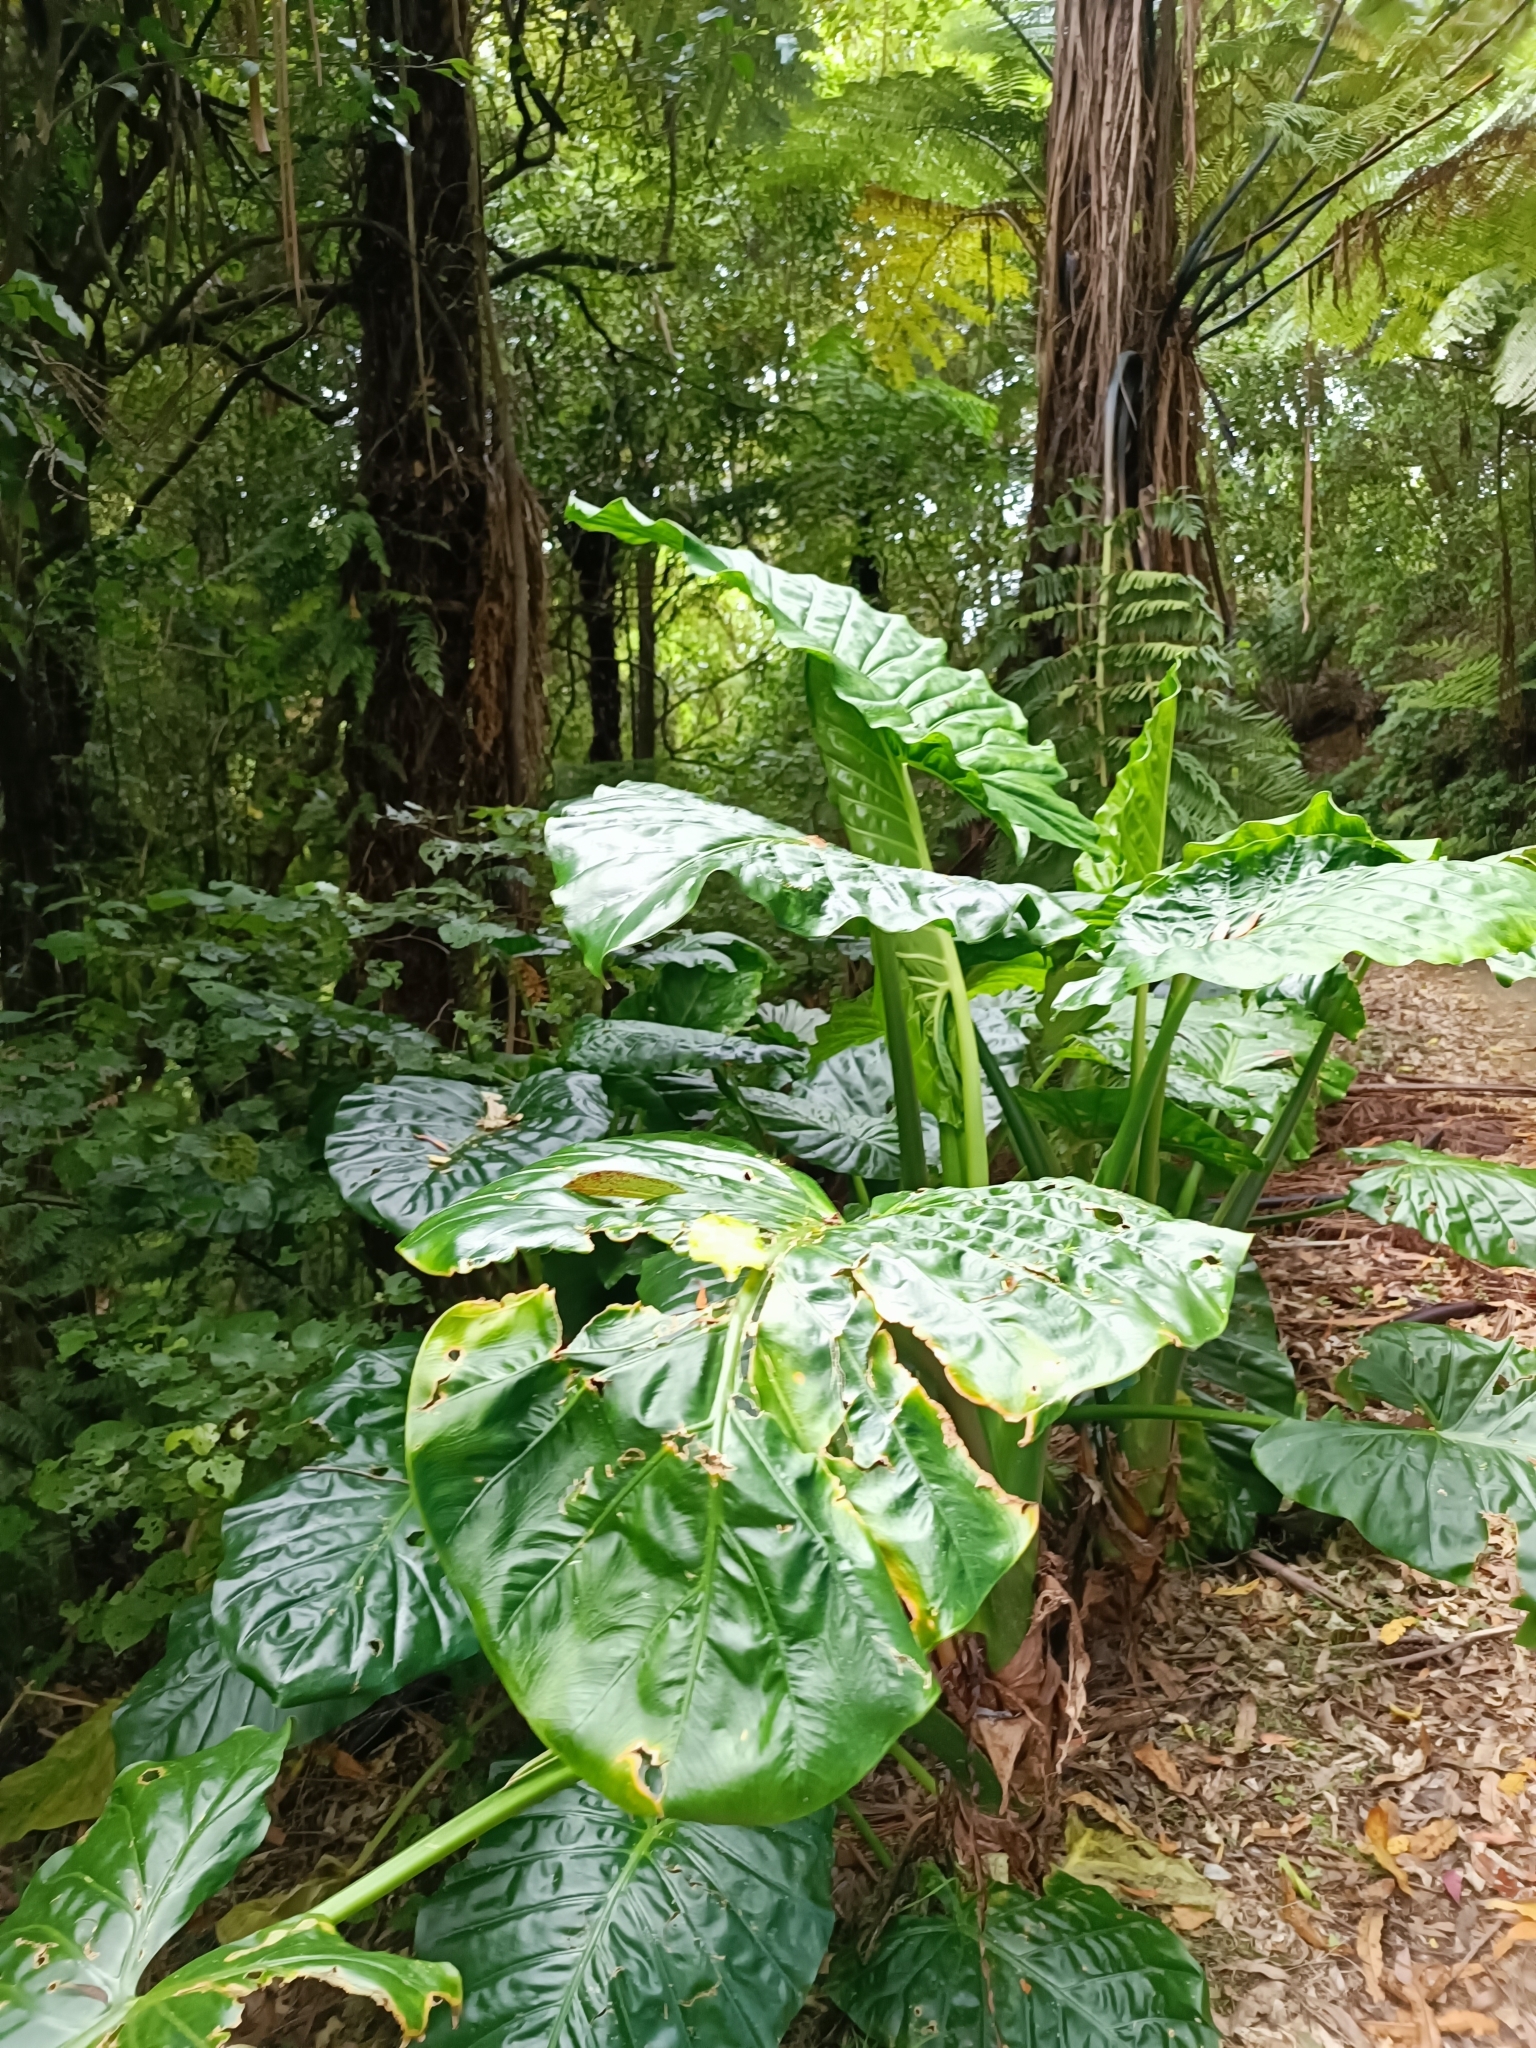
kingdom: Plantae
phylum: Tracheophyta
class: Liliopsida
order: Alismatales
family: Araceae
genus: Alocasia
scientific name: Alocasia brisbanensis
